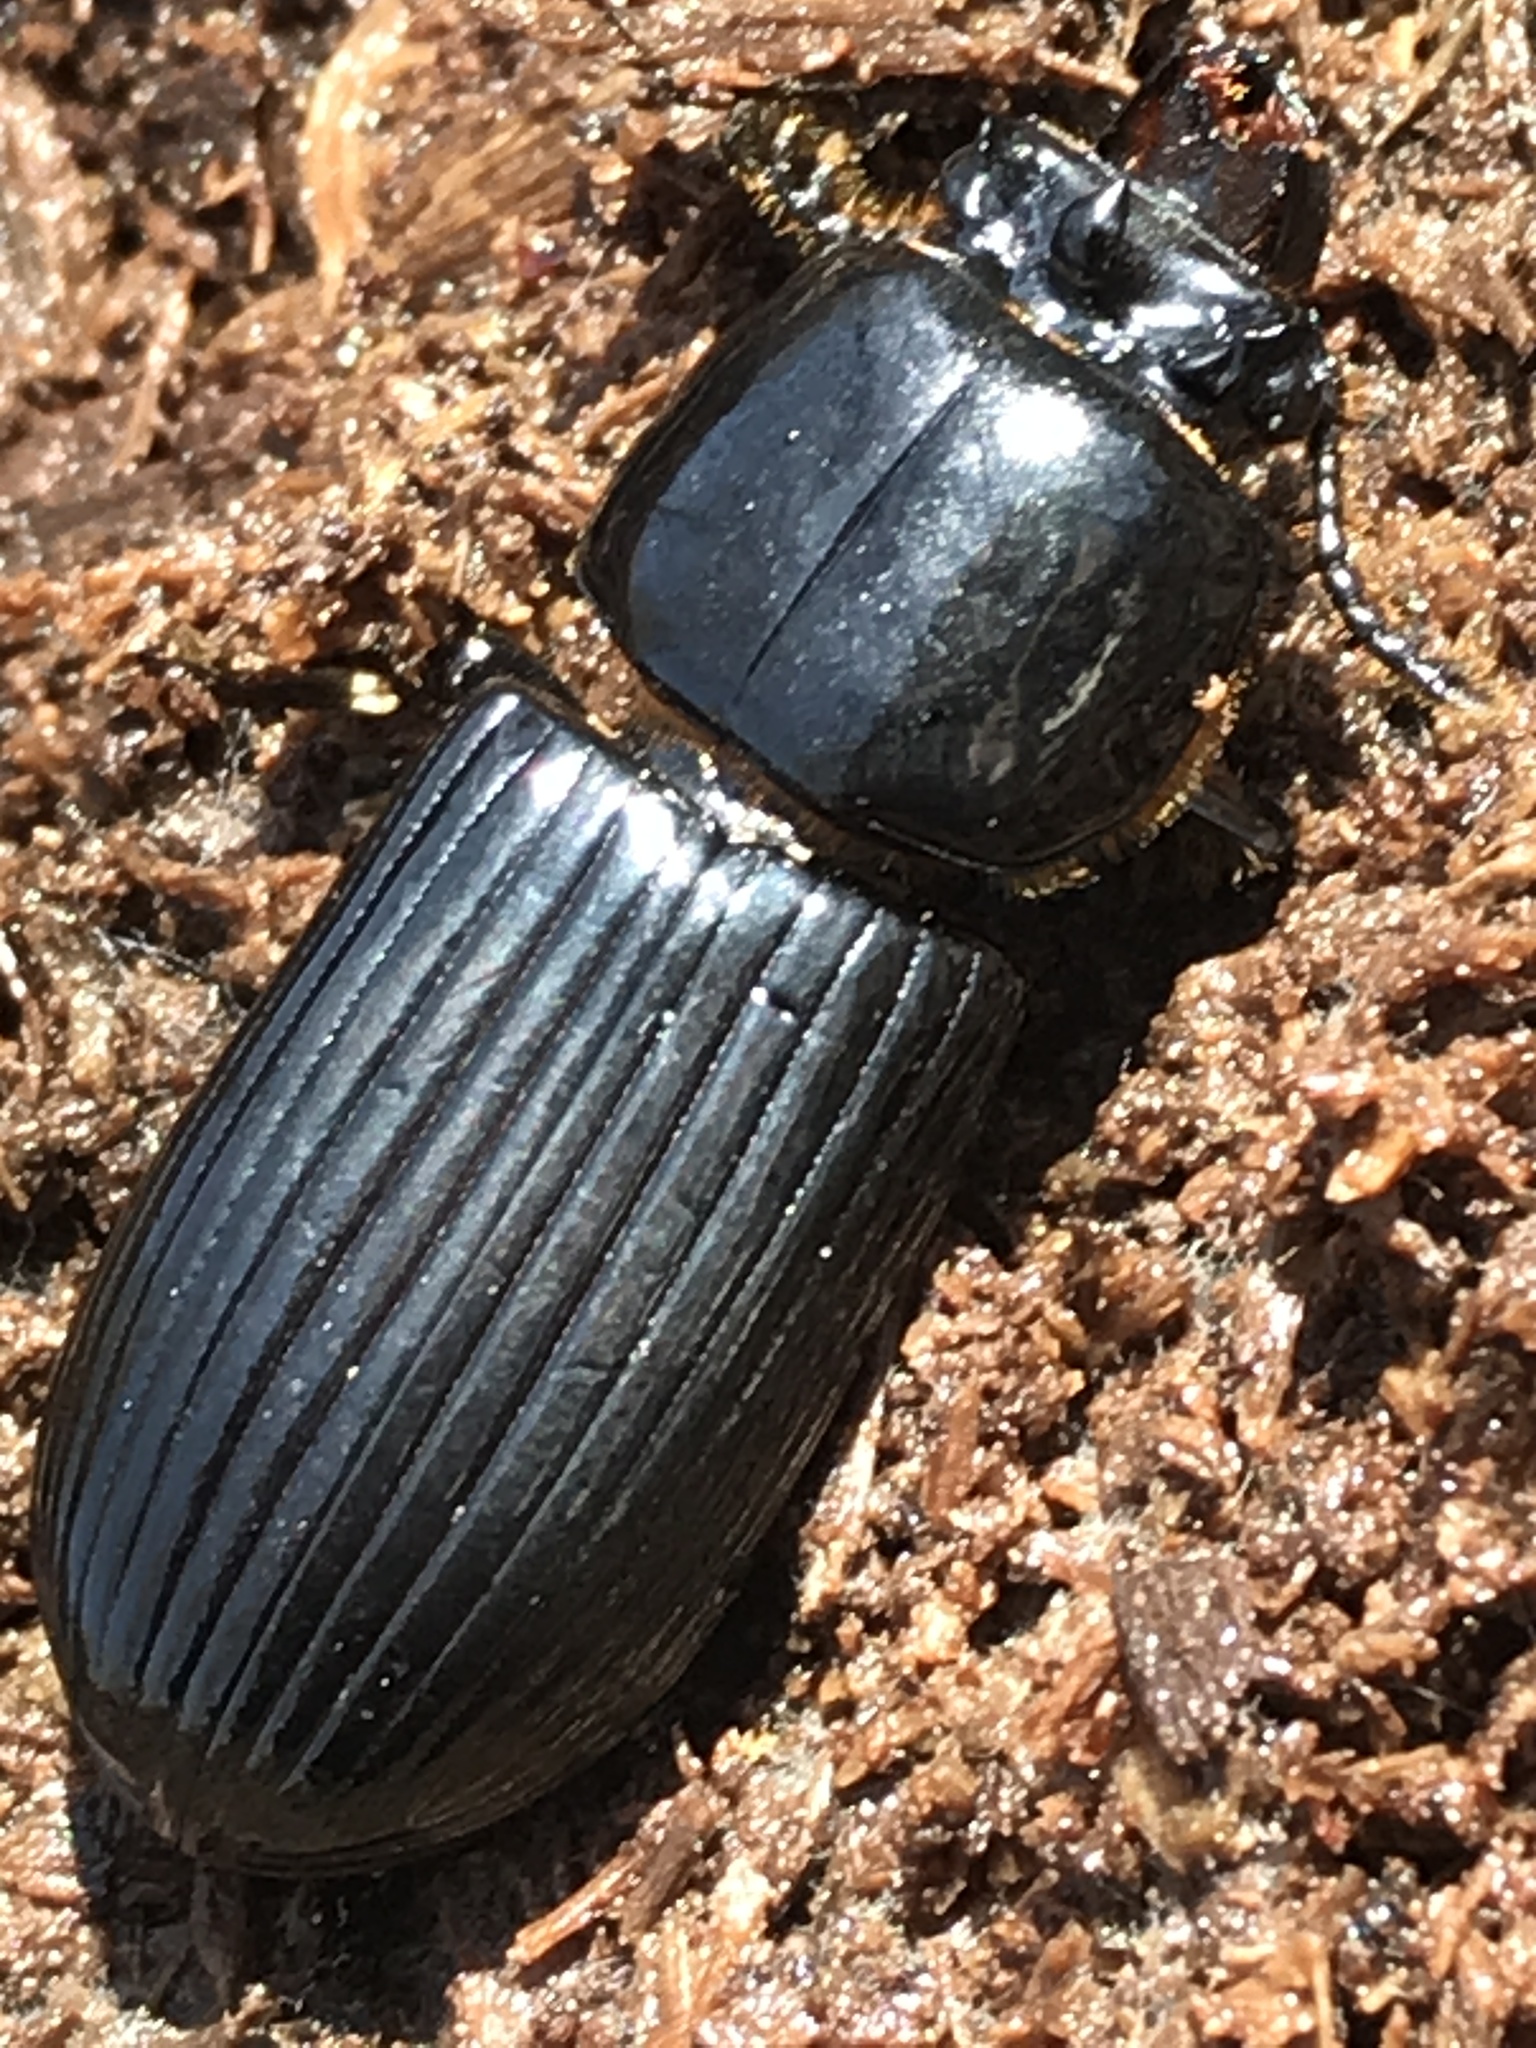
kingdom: Animalia
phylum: Arthropoda
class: Insecta
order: Coleoptera
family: Passalidae
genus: Odontotaenius
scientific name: Odontotaenius disjunctus
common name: Patent leather beetle
